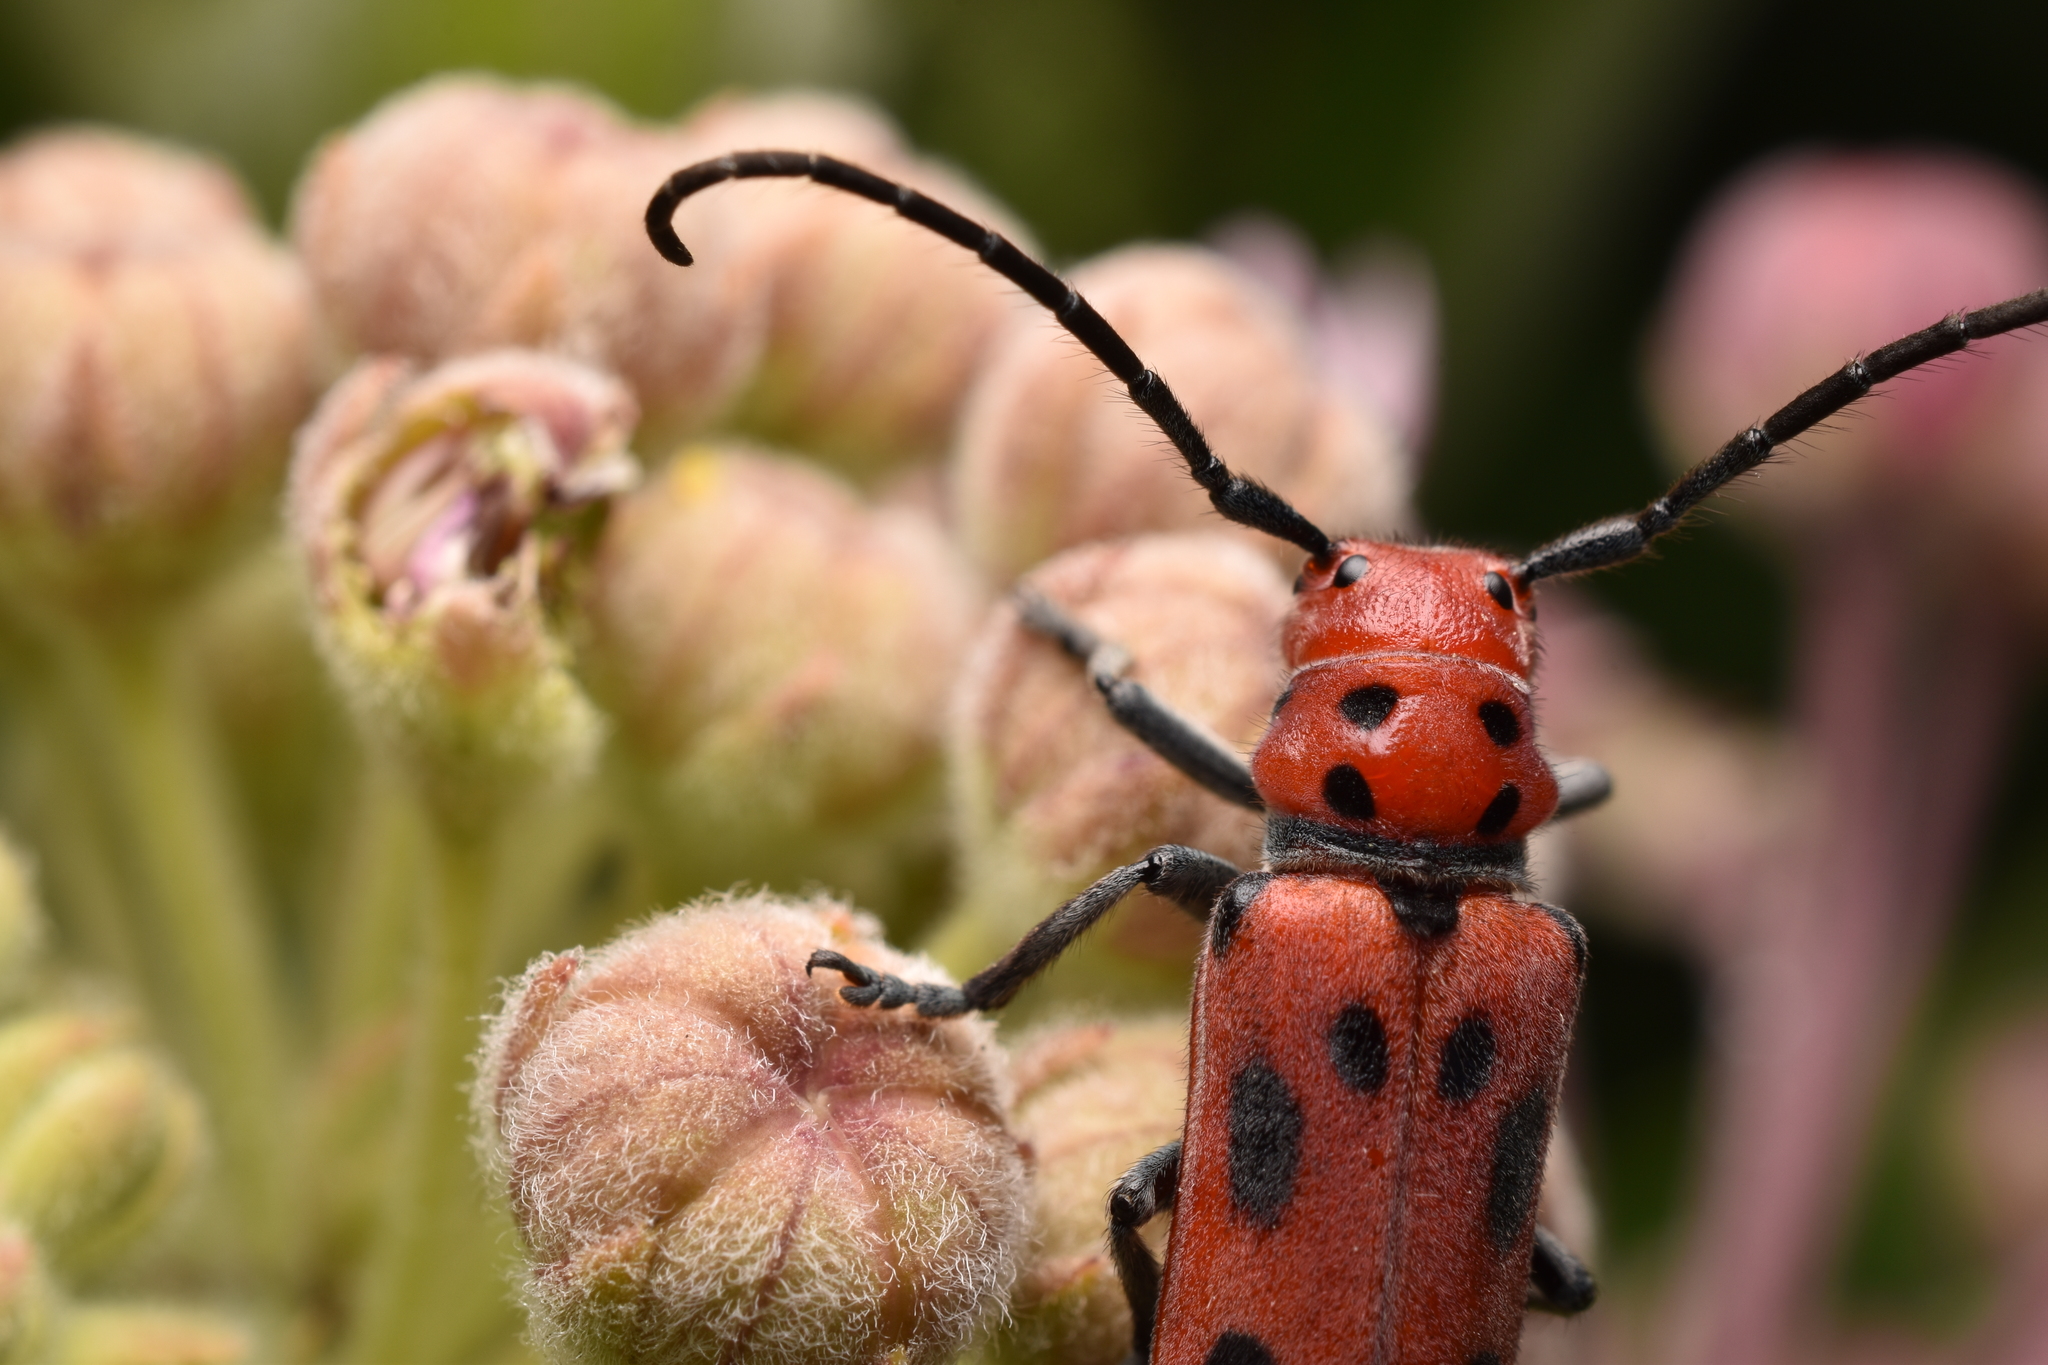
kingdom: Animalia
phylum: Arthropoda
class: Insecta
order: Coleoptera
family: Cerambycidae
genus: Tetraopes
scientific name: Tetraopes tetrophthalmus
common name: Red milkweed beetle
